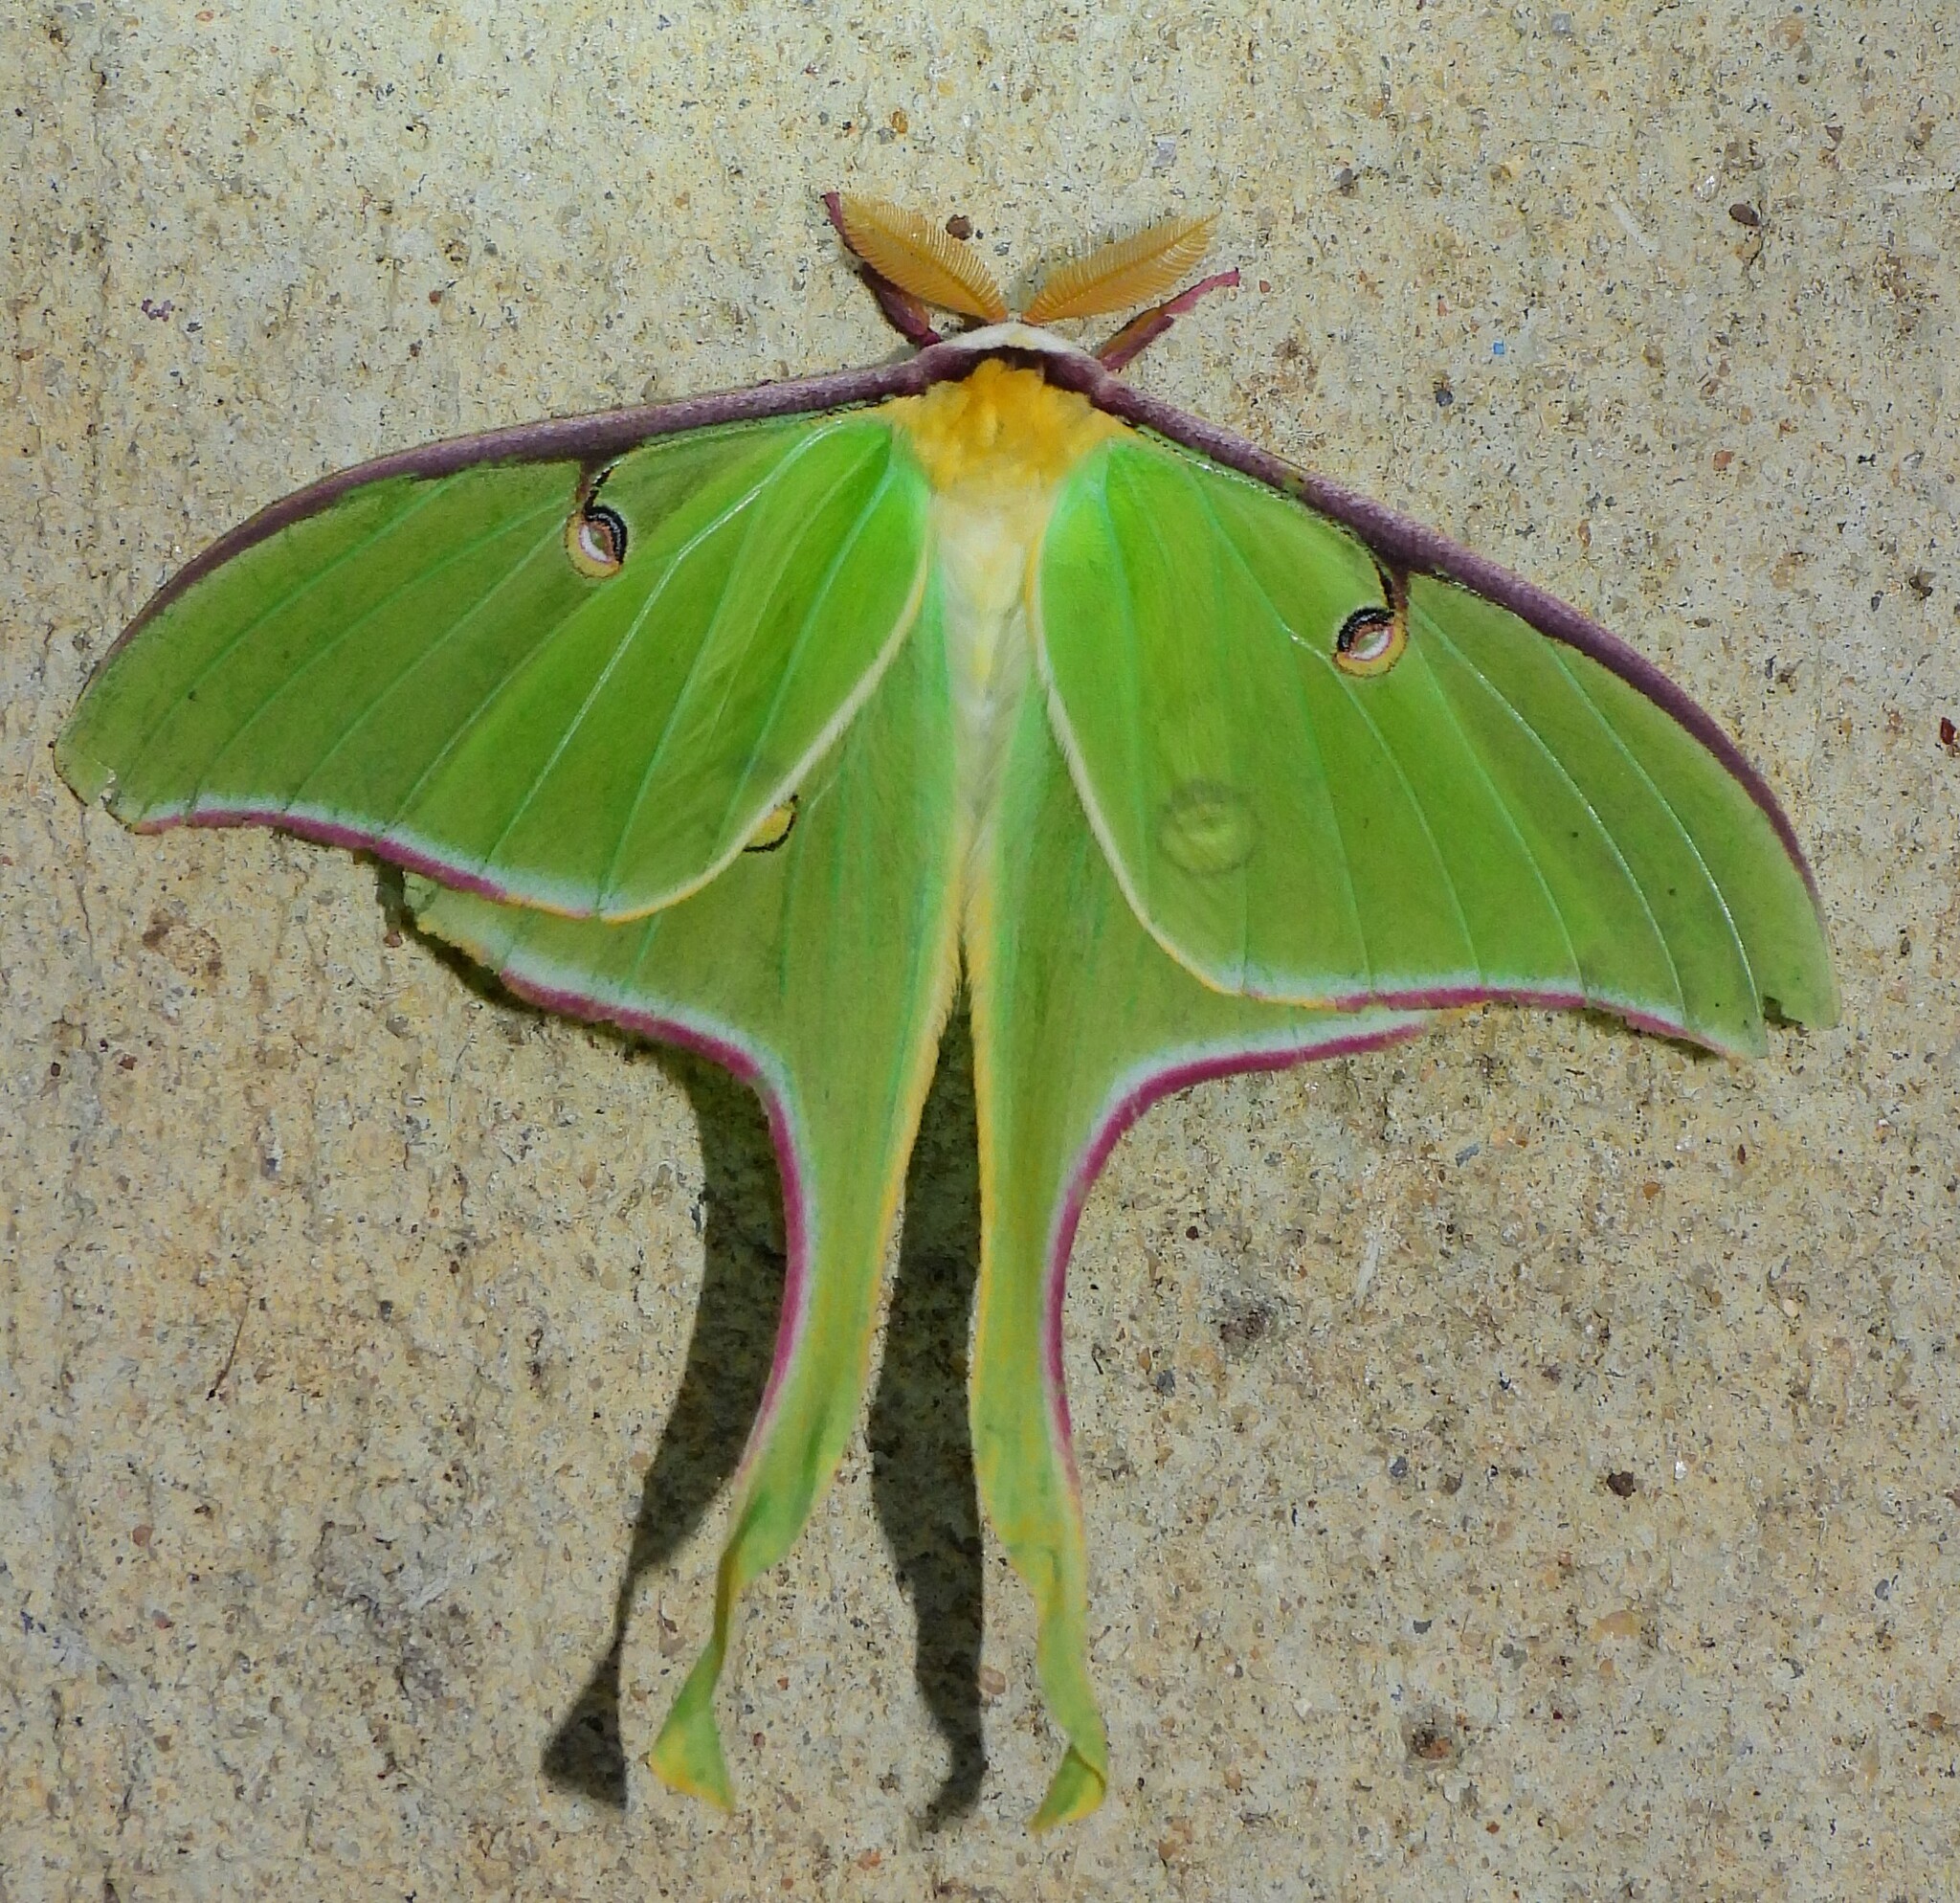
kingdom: Animalia
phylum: Arthropoda
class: Insecta
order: Lepidoptera
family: Saturniidae
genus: Actias
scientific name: Actias luna
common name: Luna moth
